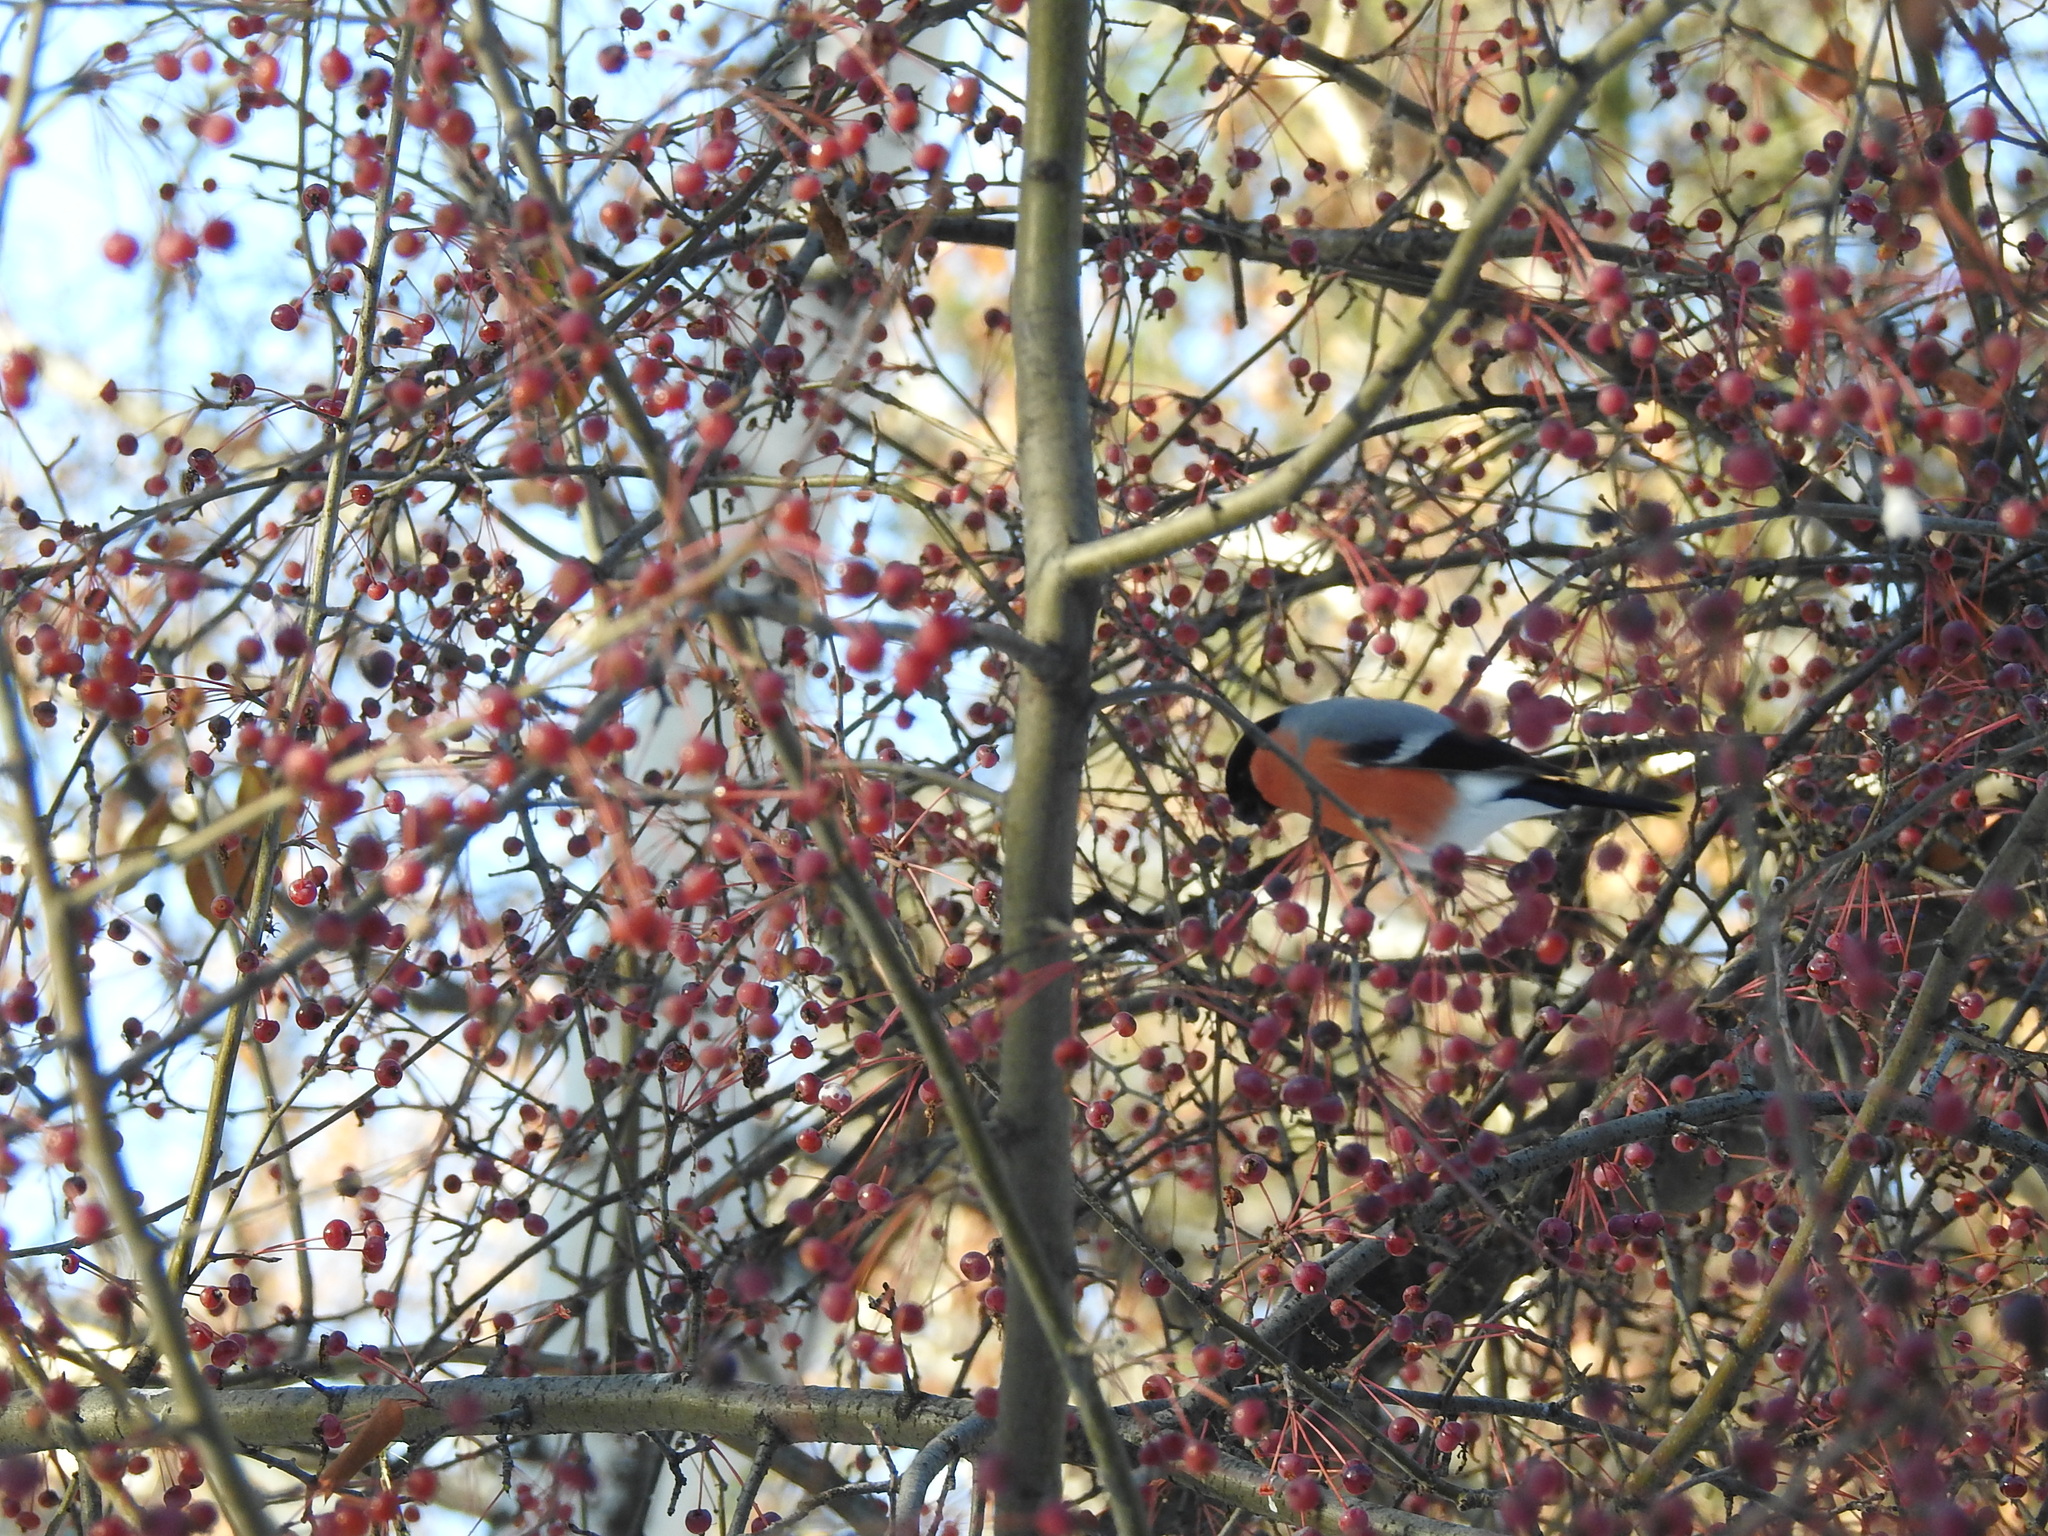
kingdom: Animalia
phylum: Chordata
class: Aves
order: Passeriformes
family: Fringillidae
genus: Pyrrhula
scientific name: Pyrrhula pyrrhula
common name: Eurasian bullfinch
